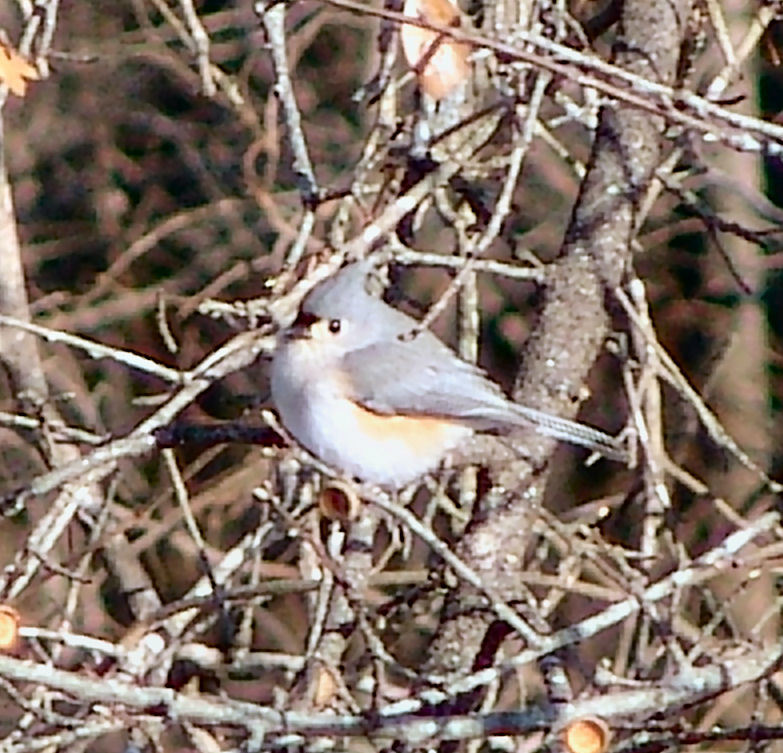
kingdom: Animalia
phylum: Chordata
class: Aves
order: Passeriformes
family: Paridae
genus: Baeolophus
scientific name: Baeolophus bicolor
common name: Tufted titmouse
